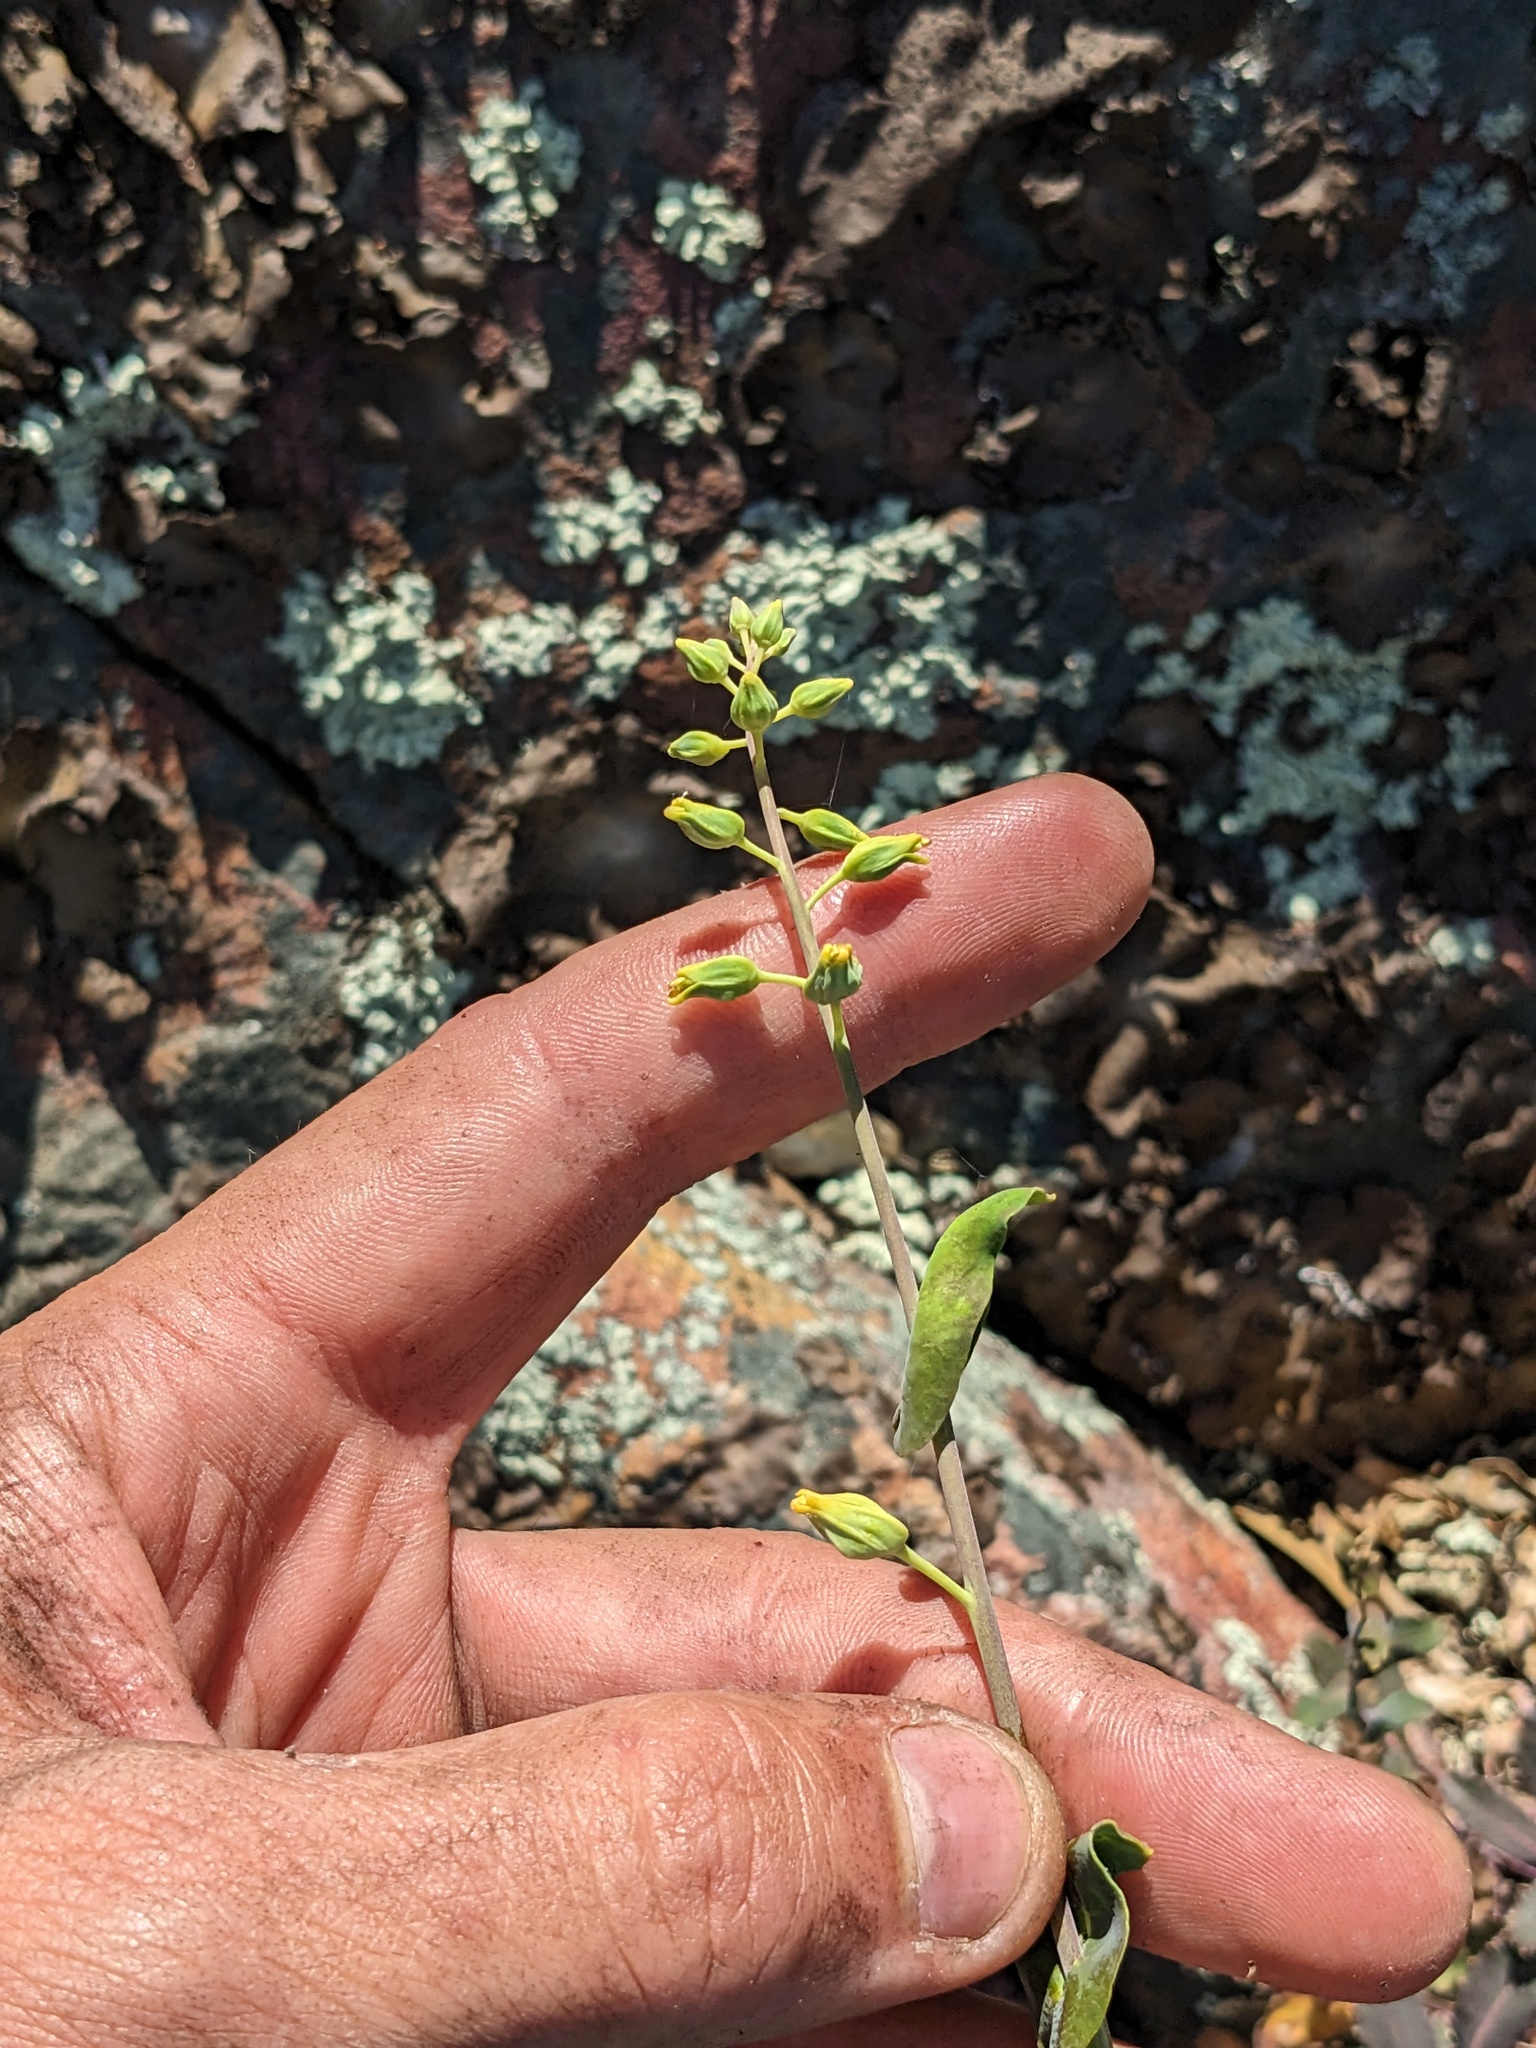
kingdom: Plantae
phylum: Tracheophyta
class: Magnoliopsida
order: Brassicales
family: Brassicaceae
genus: Streptanthus
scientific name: Streptanthus tortuosus
